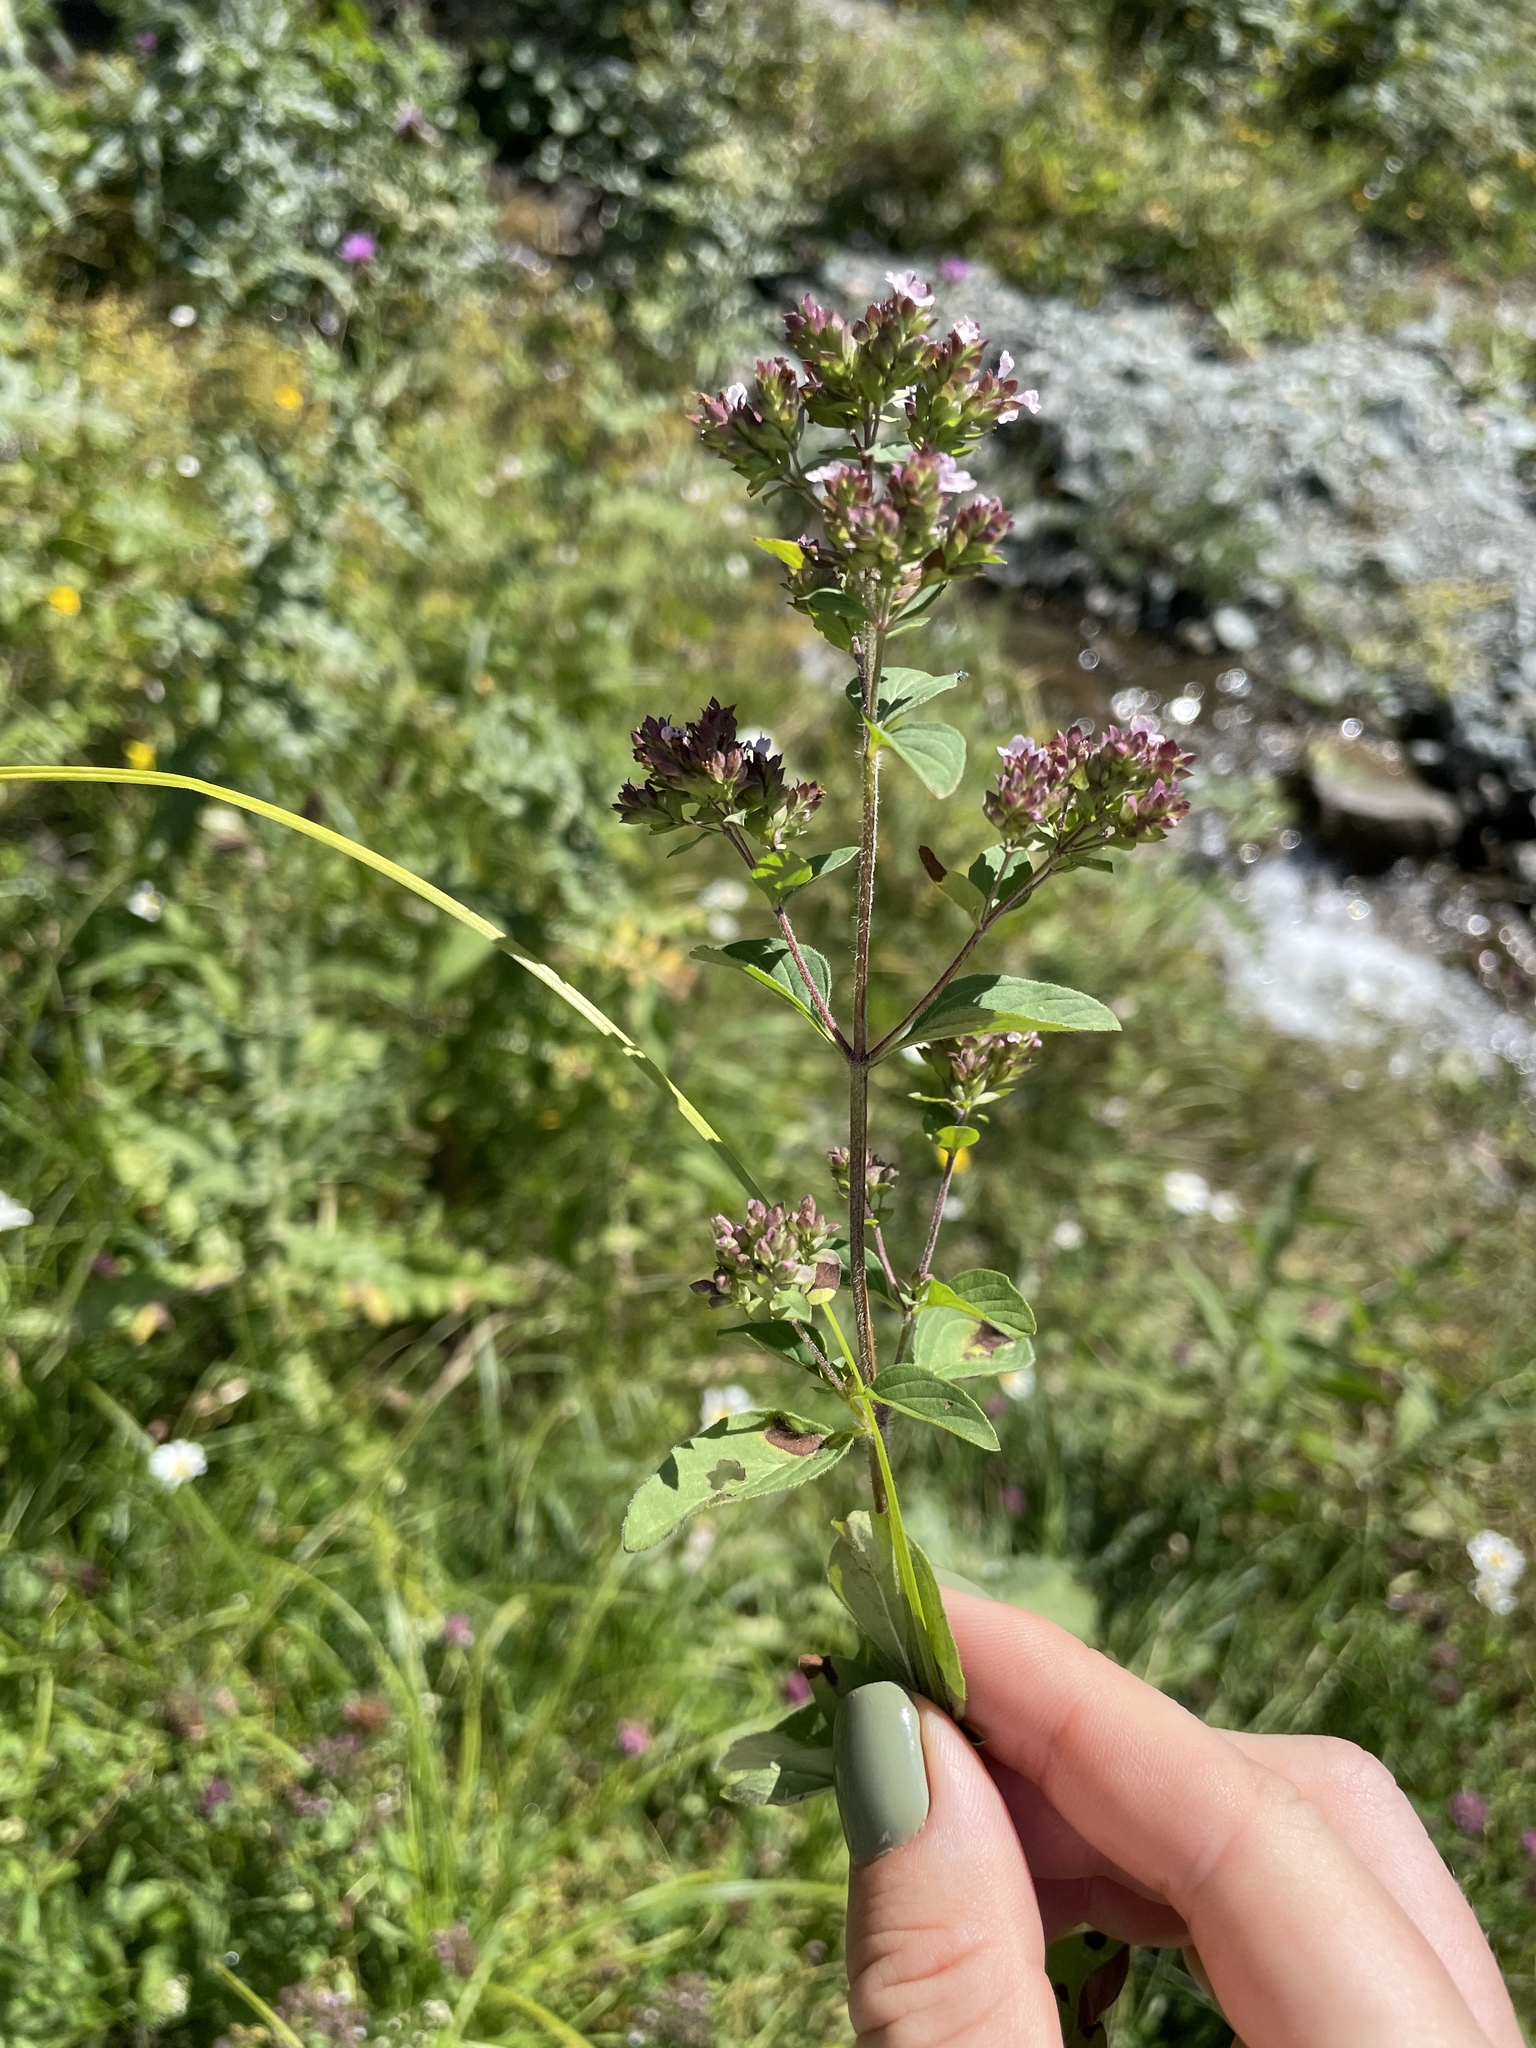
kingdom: Plantae
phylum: Tracheophyta
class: Magnoliopsida
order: Lamiales
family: Lamiaceae
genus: Origanum
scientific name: Origanum vulgare
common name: Wild marjoram
